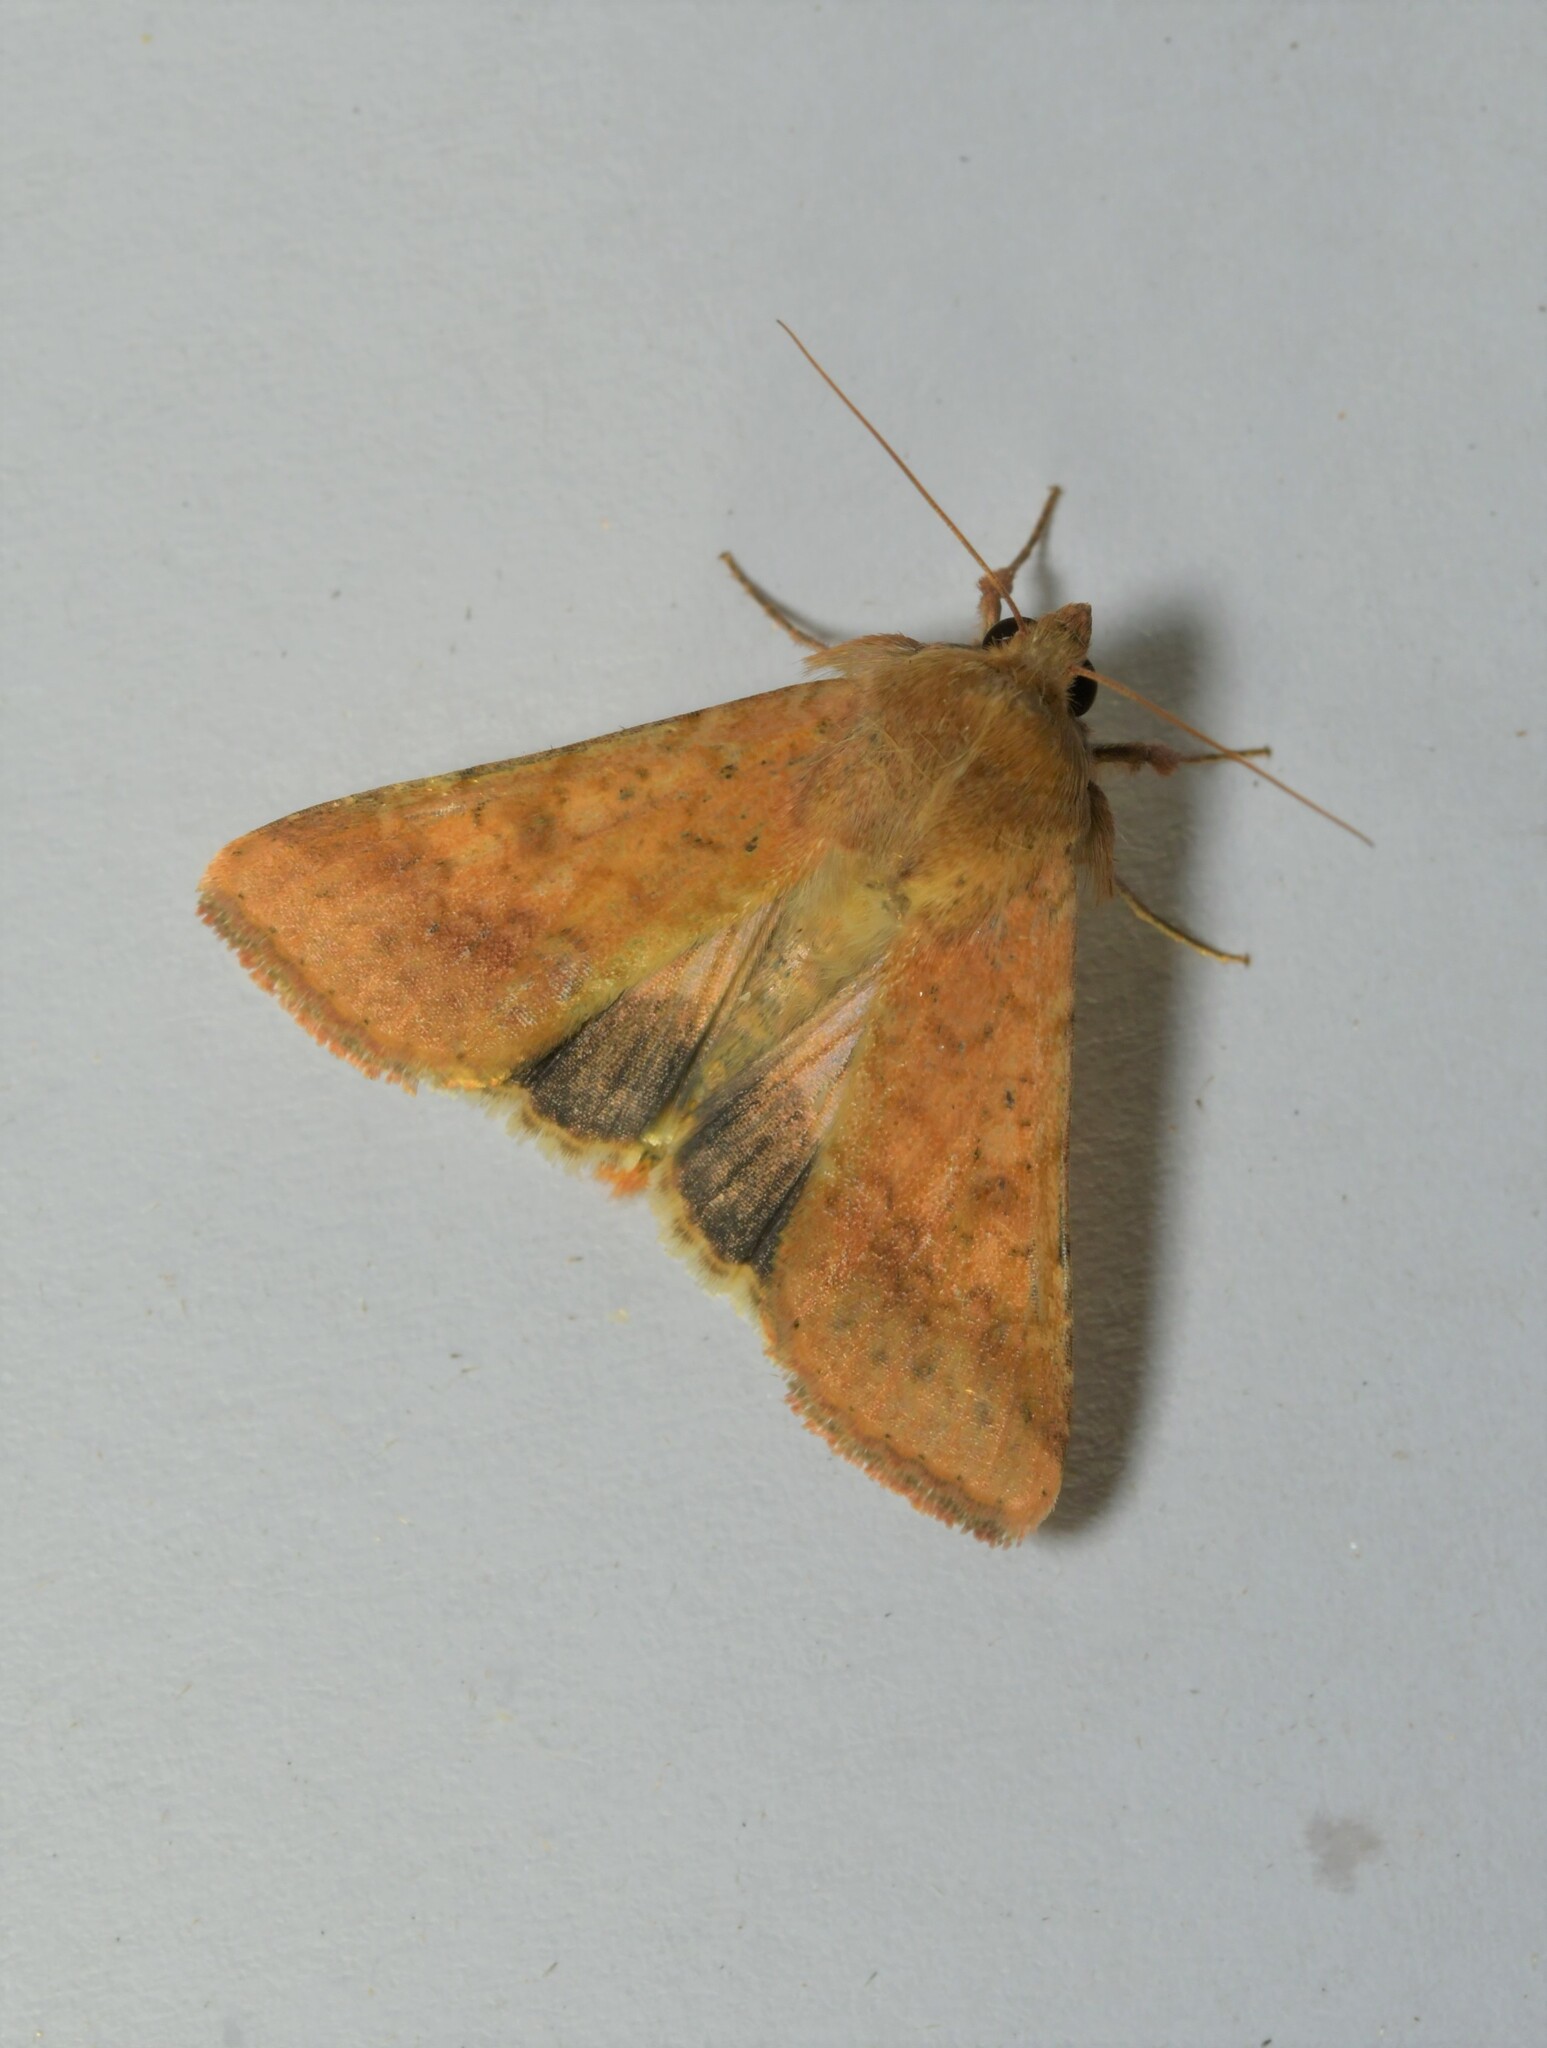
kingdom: Animalia
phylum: Arthropoda
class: Insecta
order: Lepidoptera
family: Noctuidae
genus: Helicoverpa
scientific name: Helicoverpa armigera
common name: Cotton bollworm
